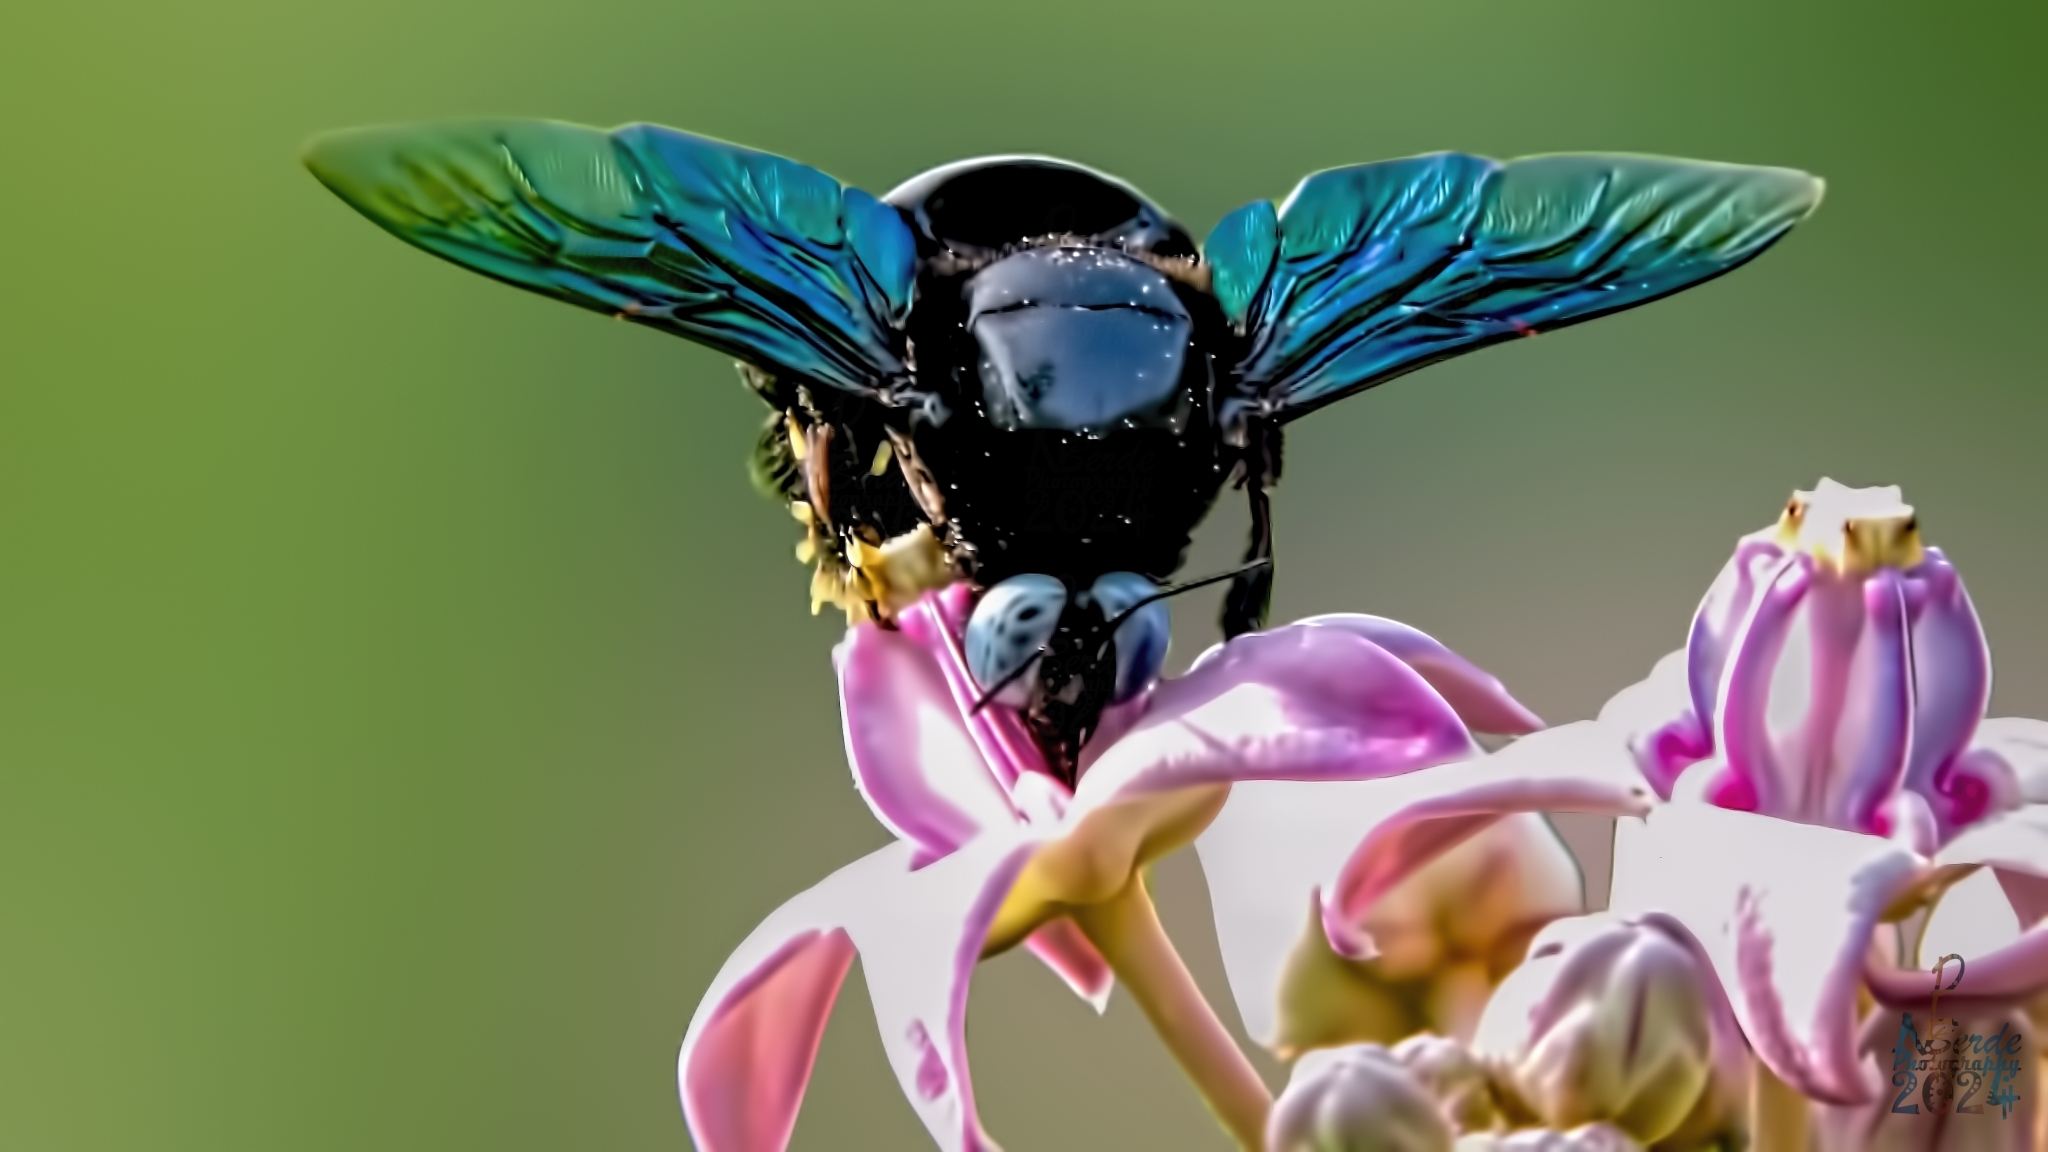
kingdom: Animalia
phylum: Arthropoda
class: Insecta
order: Hymenoptera
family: Apidae
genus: Xylocopa
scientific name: Xylocopa tenuiscapa
